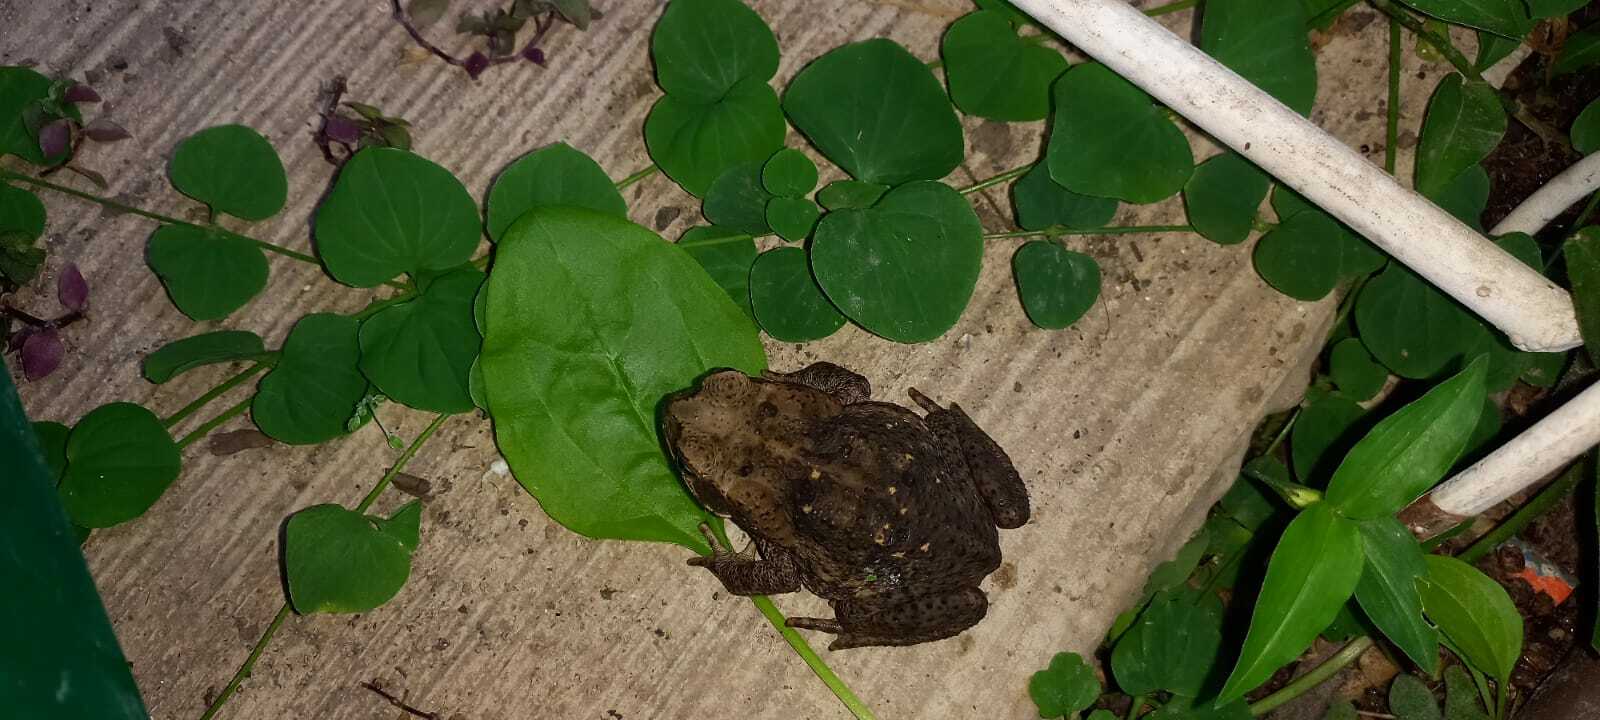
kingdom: Animalia
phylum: Chordata
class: Amphibia
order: Anura
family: Bufonidae
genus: Rhinella
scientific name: Rhinella horribilis
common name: Mesoamerican cane toad
